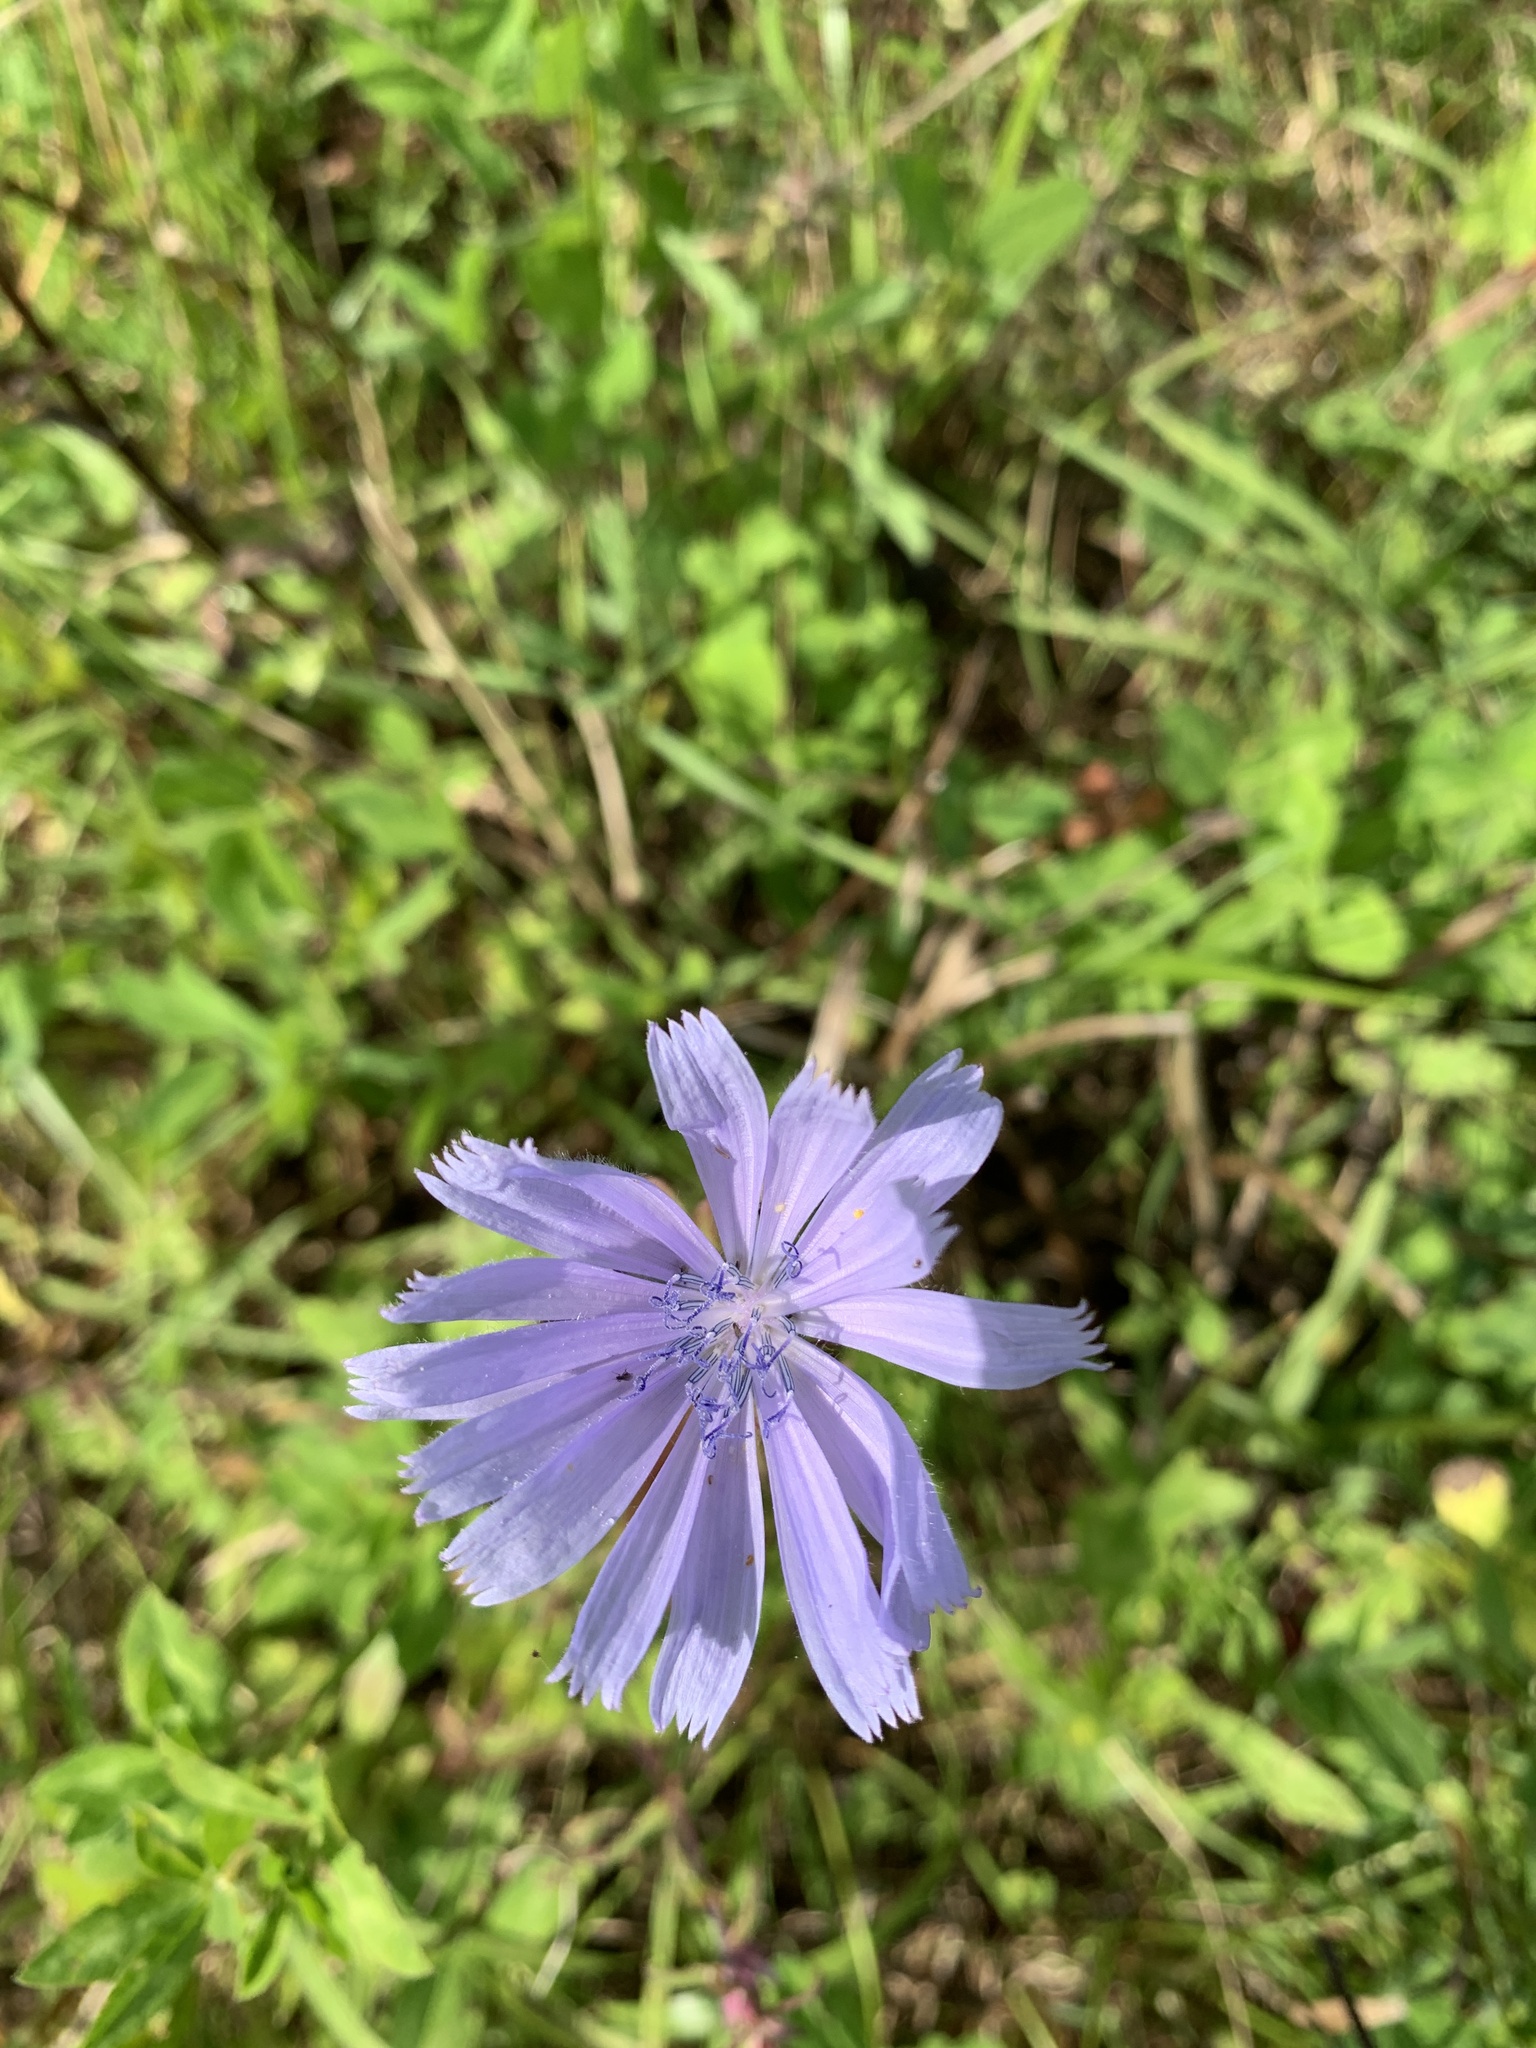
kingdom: Plantae
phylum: Tracheophyta
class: Magnoliopsida
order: Asterales
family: Asteraceae
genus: Cichorium
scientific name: Cichorium intybus
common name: Chicory
